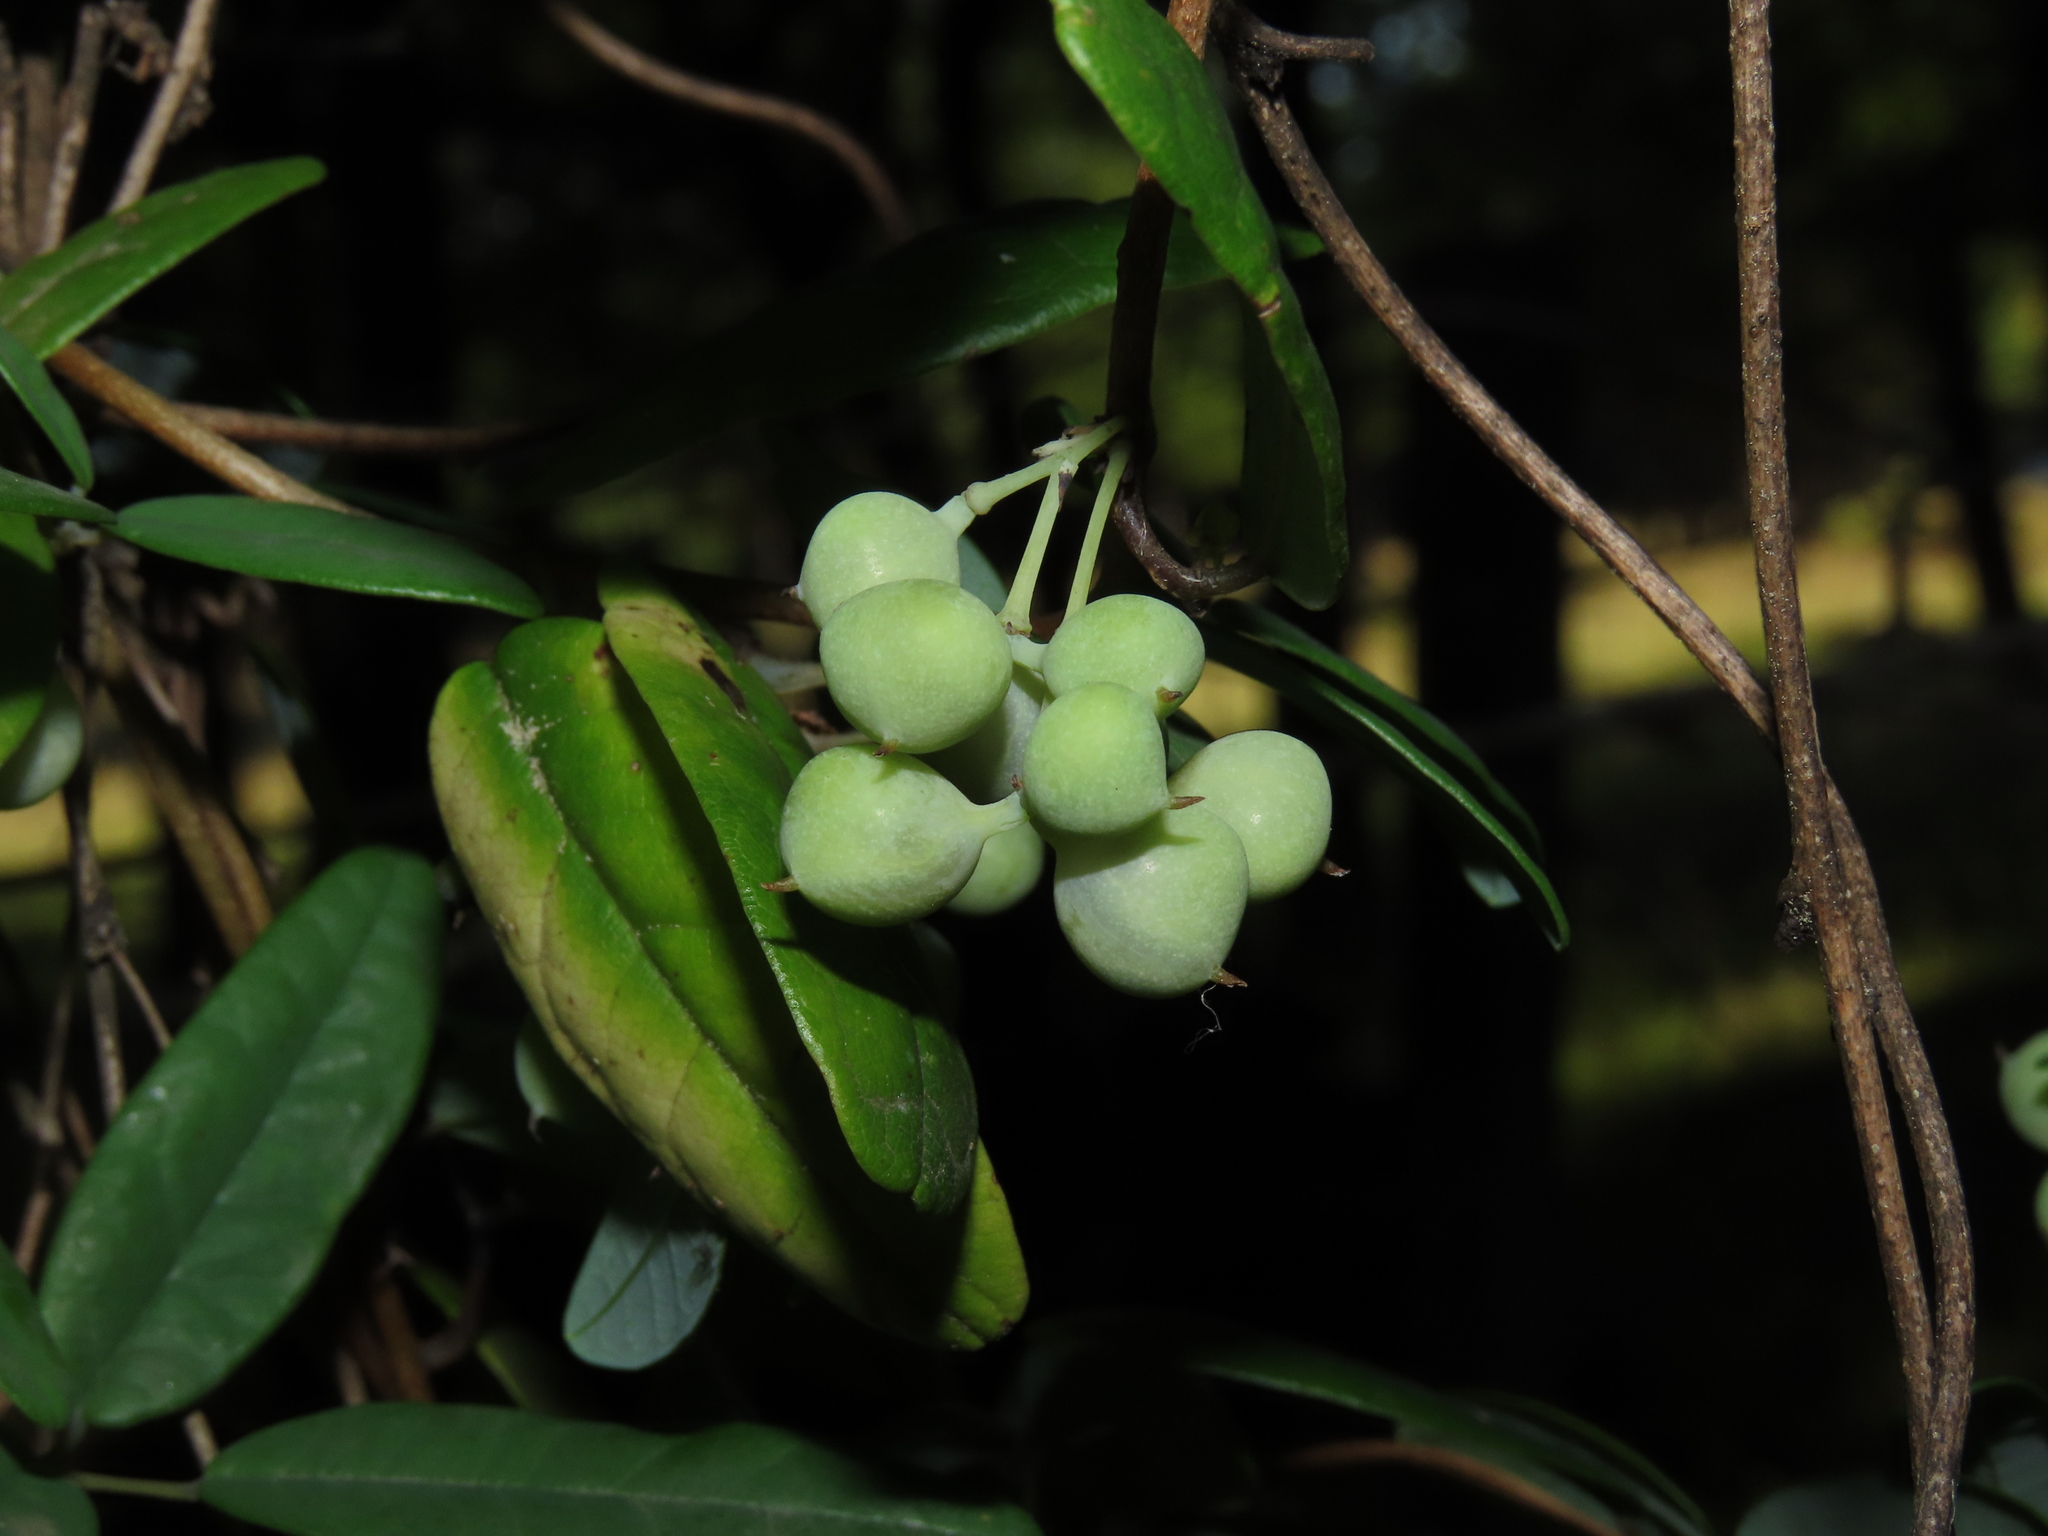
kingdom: Plantae
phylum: Tracheophyta
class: Magnoliopsida
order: Ranunculales
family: Lardizabalaceae
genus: Boquila
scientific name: Boquila trifoliolata
